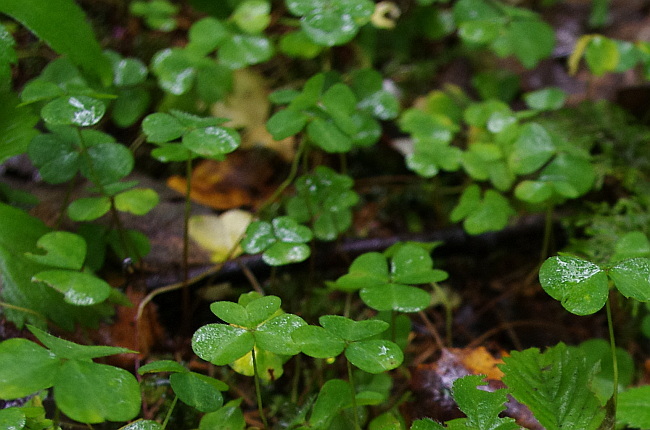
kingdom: Plantae
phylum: Tracheophyta
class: Magnoliopsida
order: Oxalidales
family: Oxalidaceae
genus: Oxalis
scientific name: Oxalis acetosella
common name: Wood-sorrel
